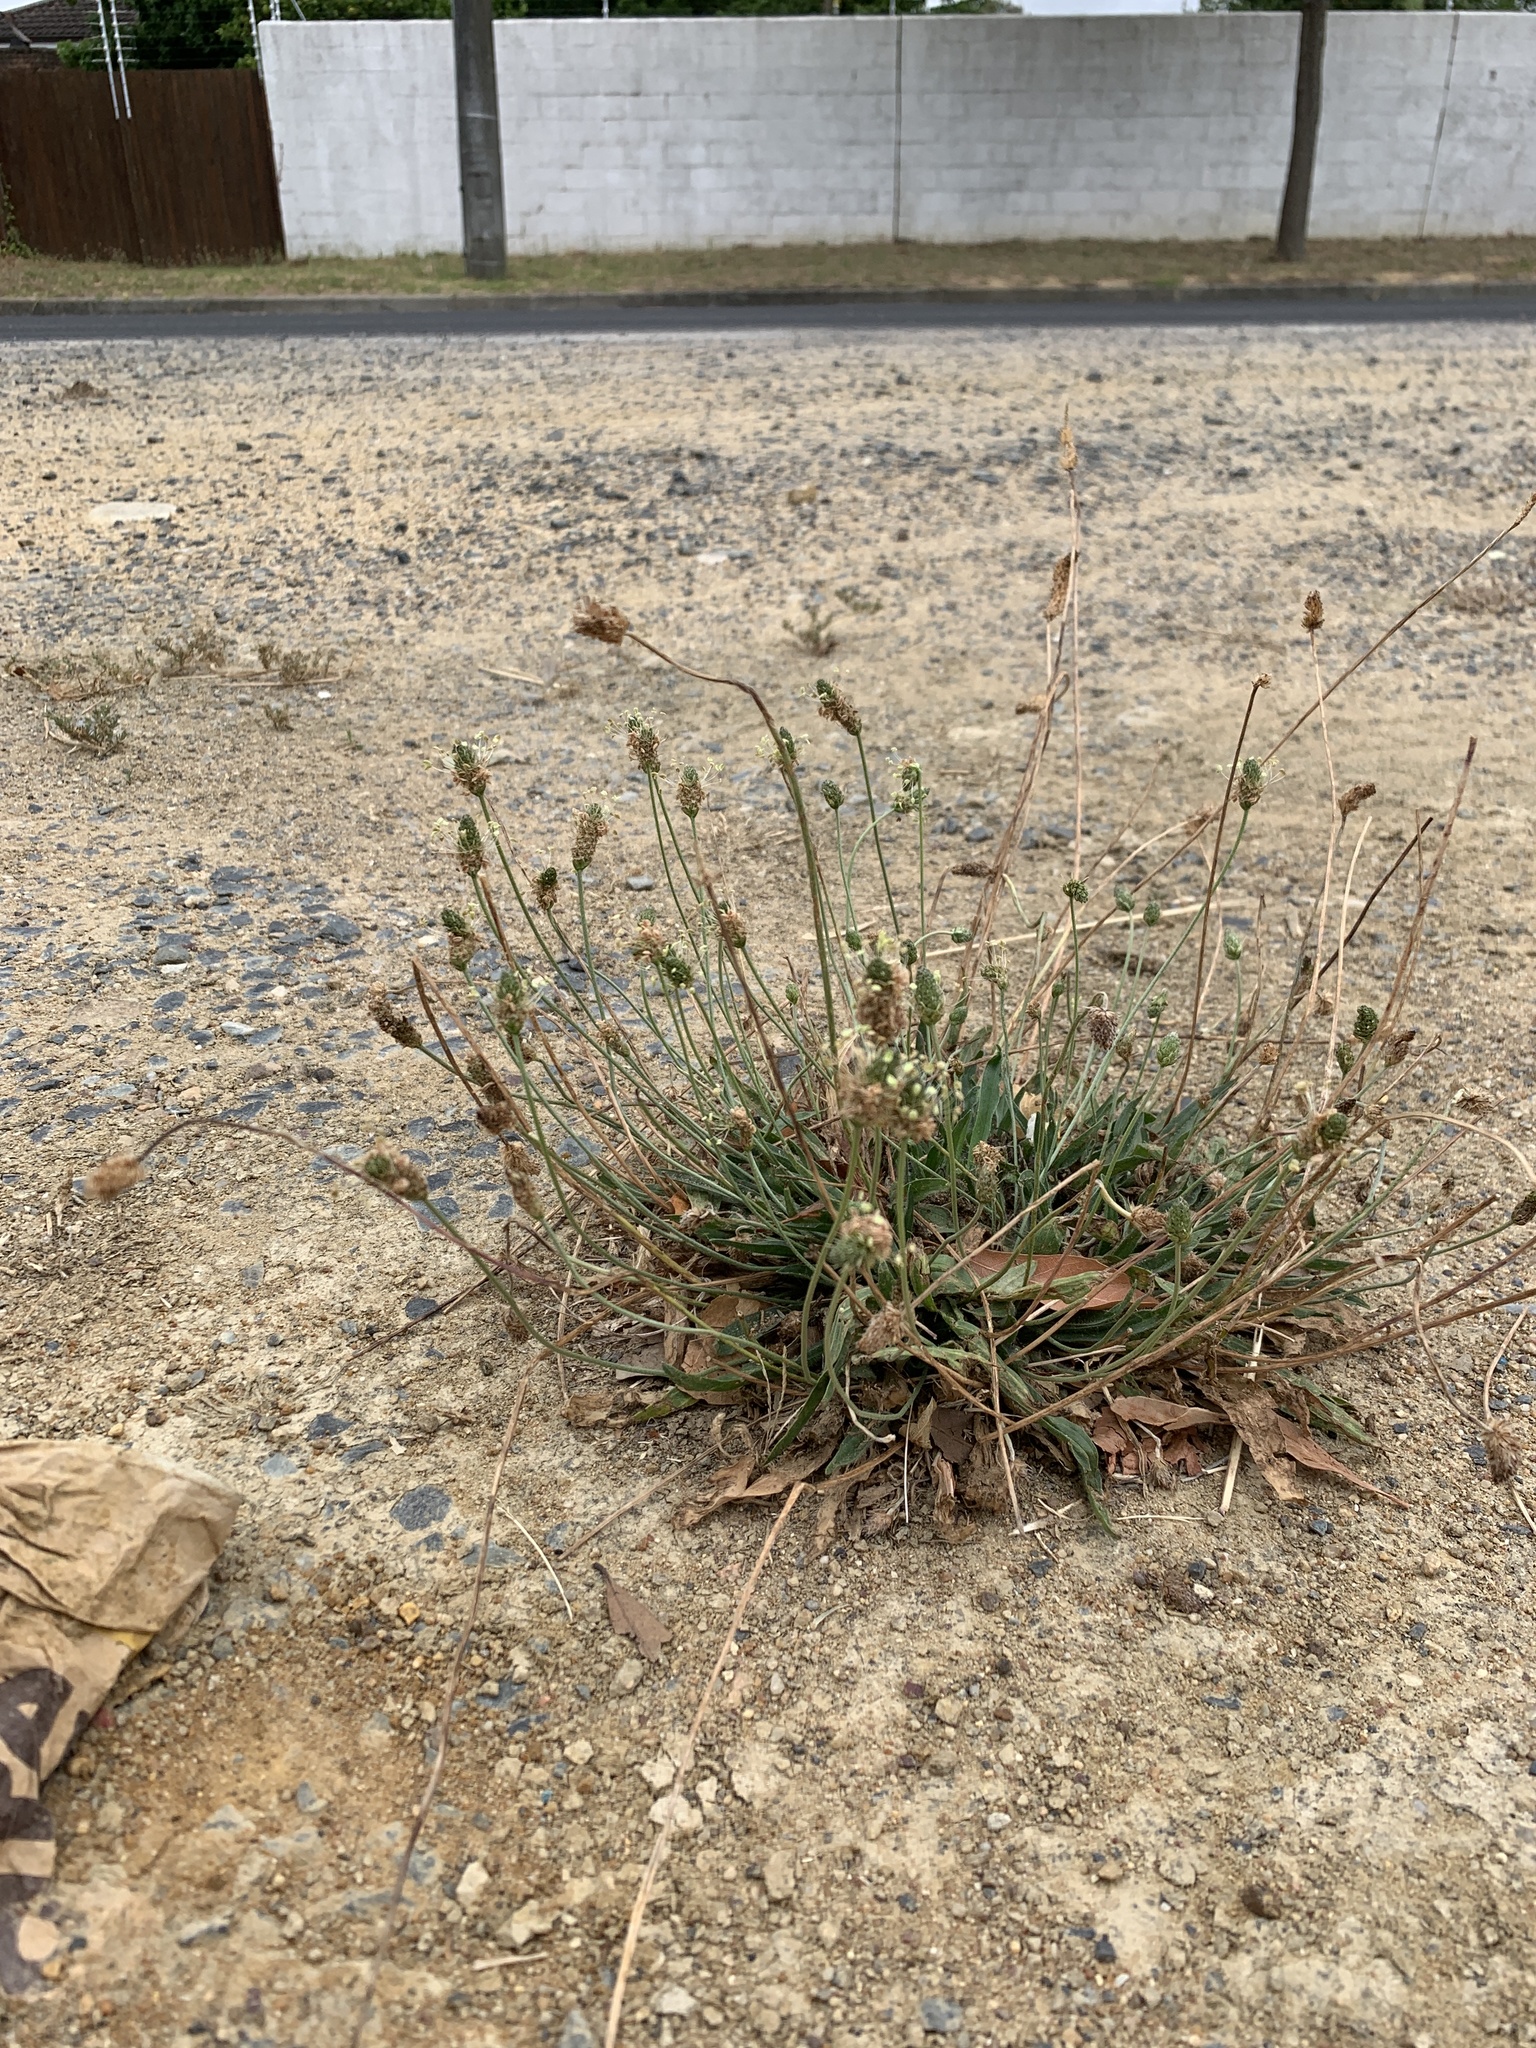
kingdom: Plantae
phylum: Tracheophyta
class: Magnoliopsida
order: Lamiales
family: Plantaginaceae
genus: Plantago
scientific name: Plantago lanceolata
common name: Ribwort plantain
